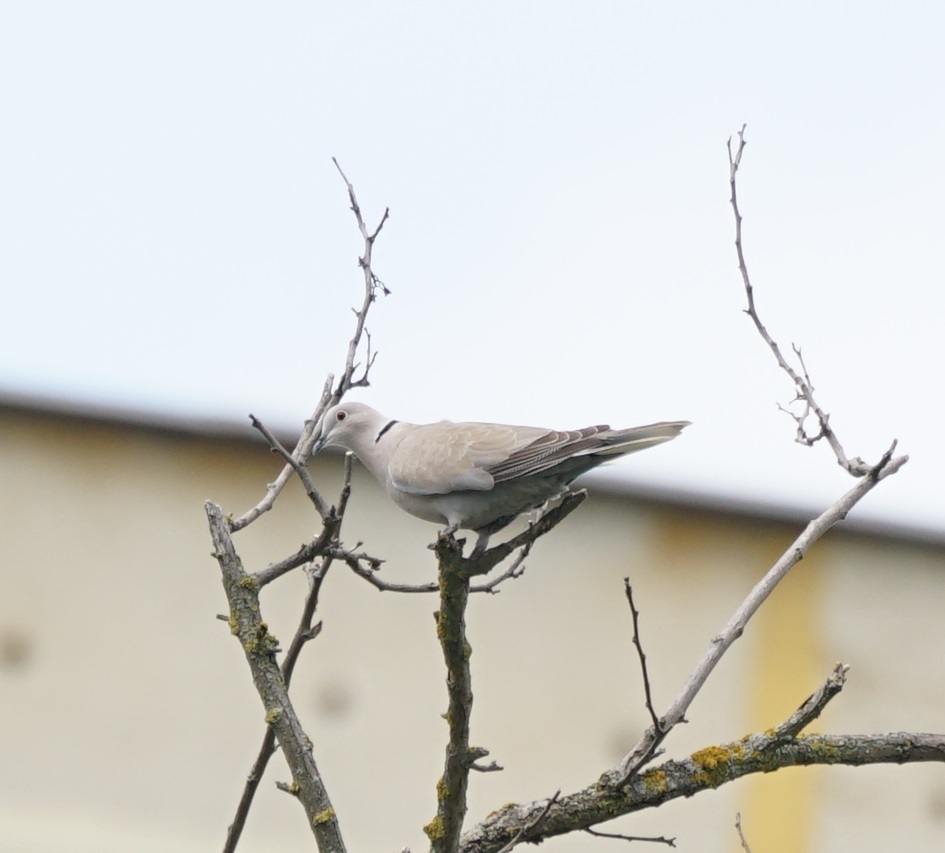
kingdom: Animalia
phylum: Chordata
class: Aves
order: Columbiformes
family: Columbidae
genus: Streptopelia
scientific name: Streptopelia decaocto
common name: Eurasian collared dove
